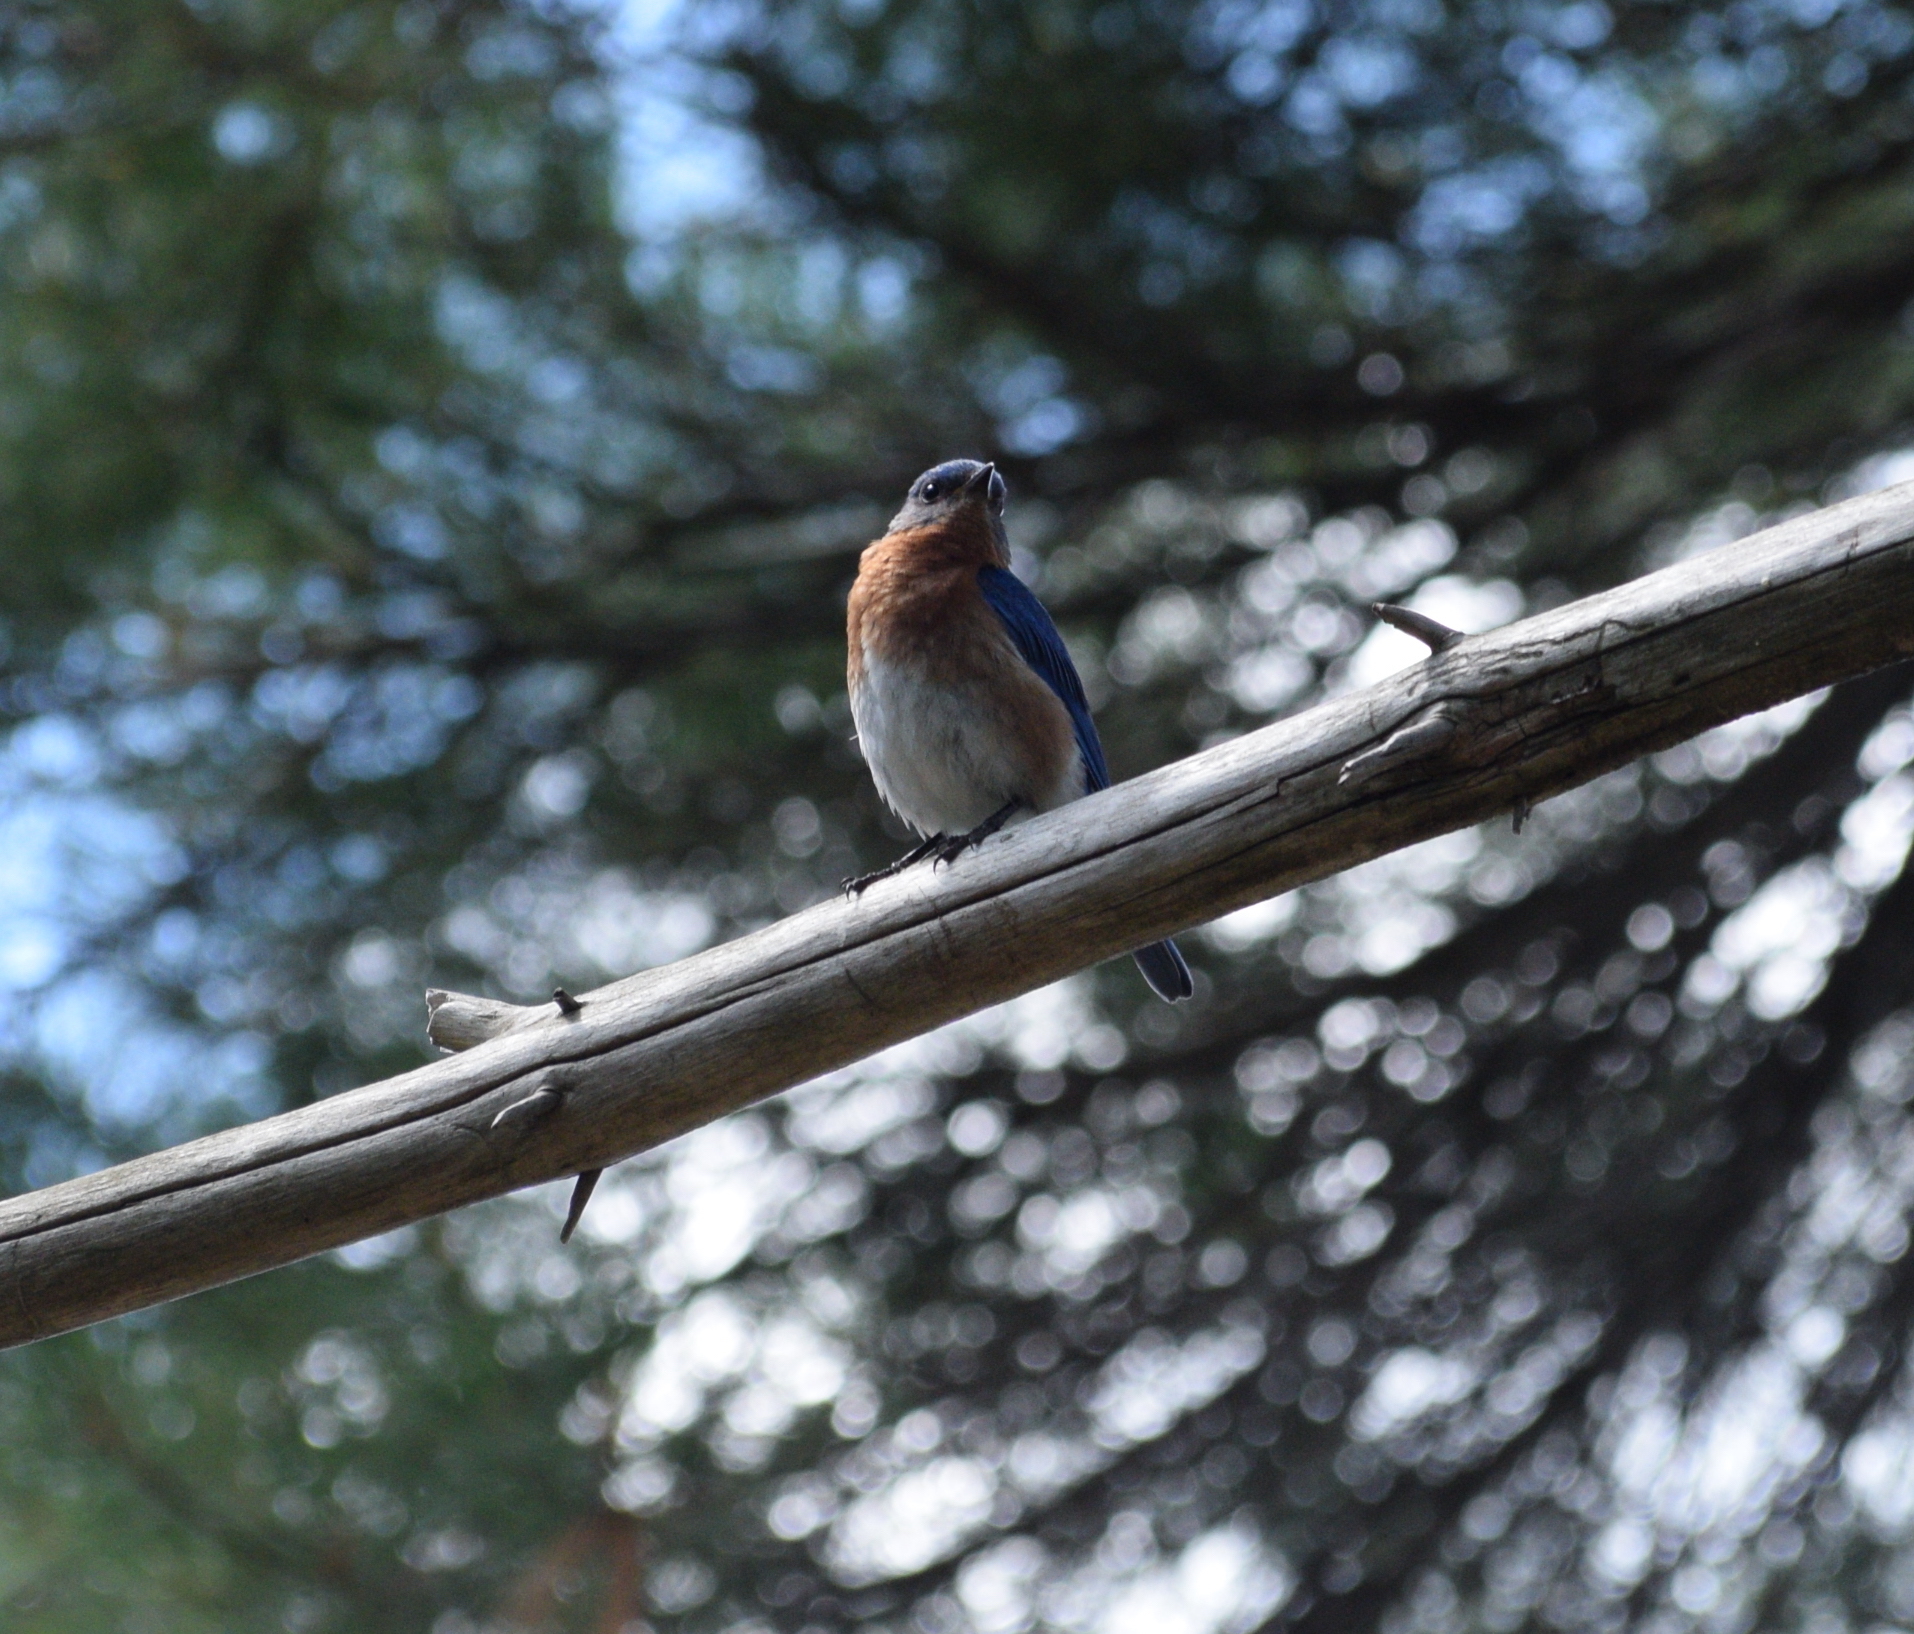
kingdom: Animalia
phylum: Chordata
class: Aves
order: Passeriformes
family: Turdidae
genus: Sialia
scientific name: Sialia sialis
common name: Eastern bluebird
